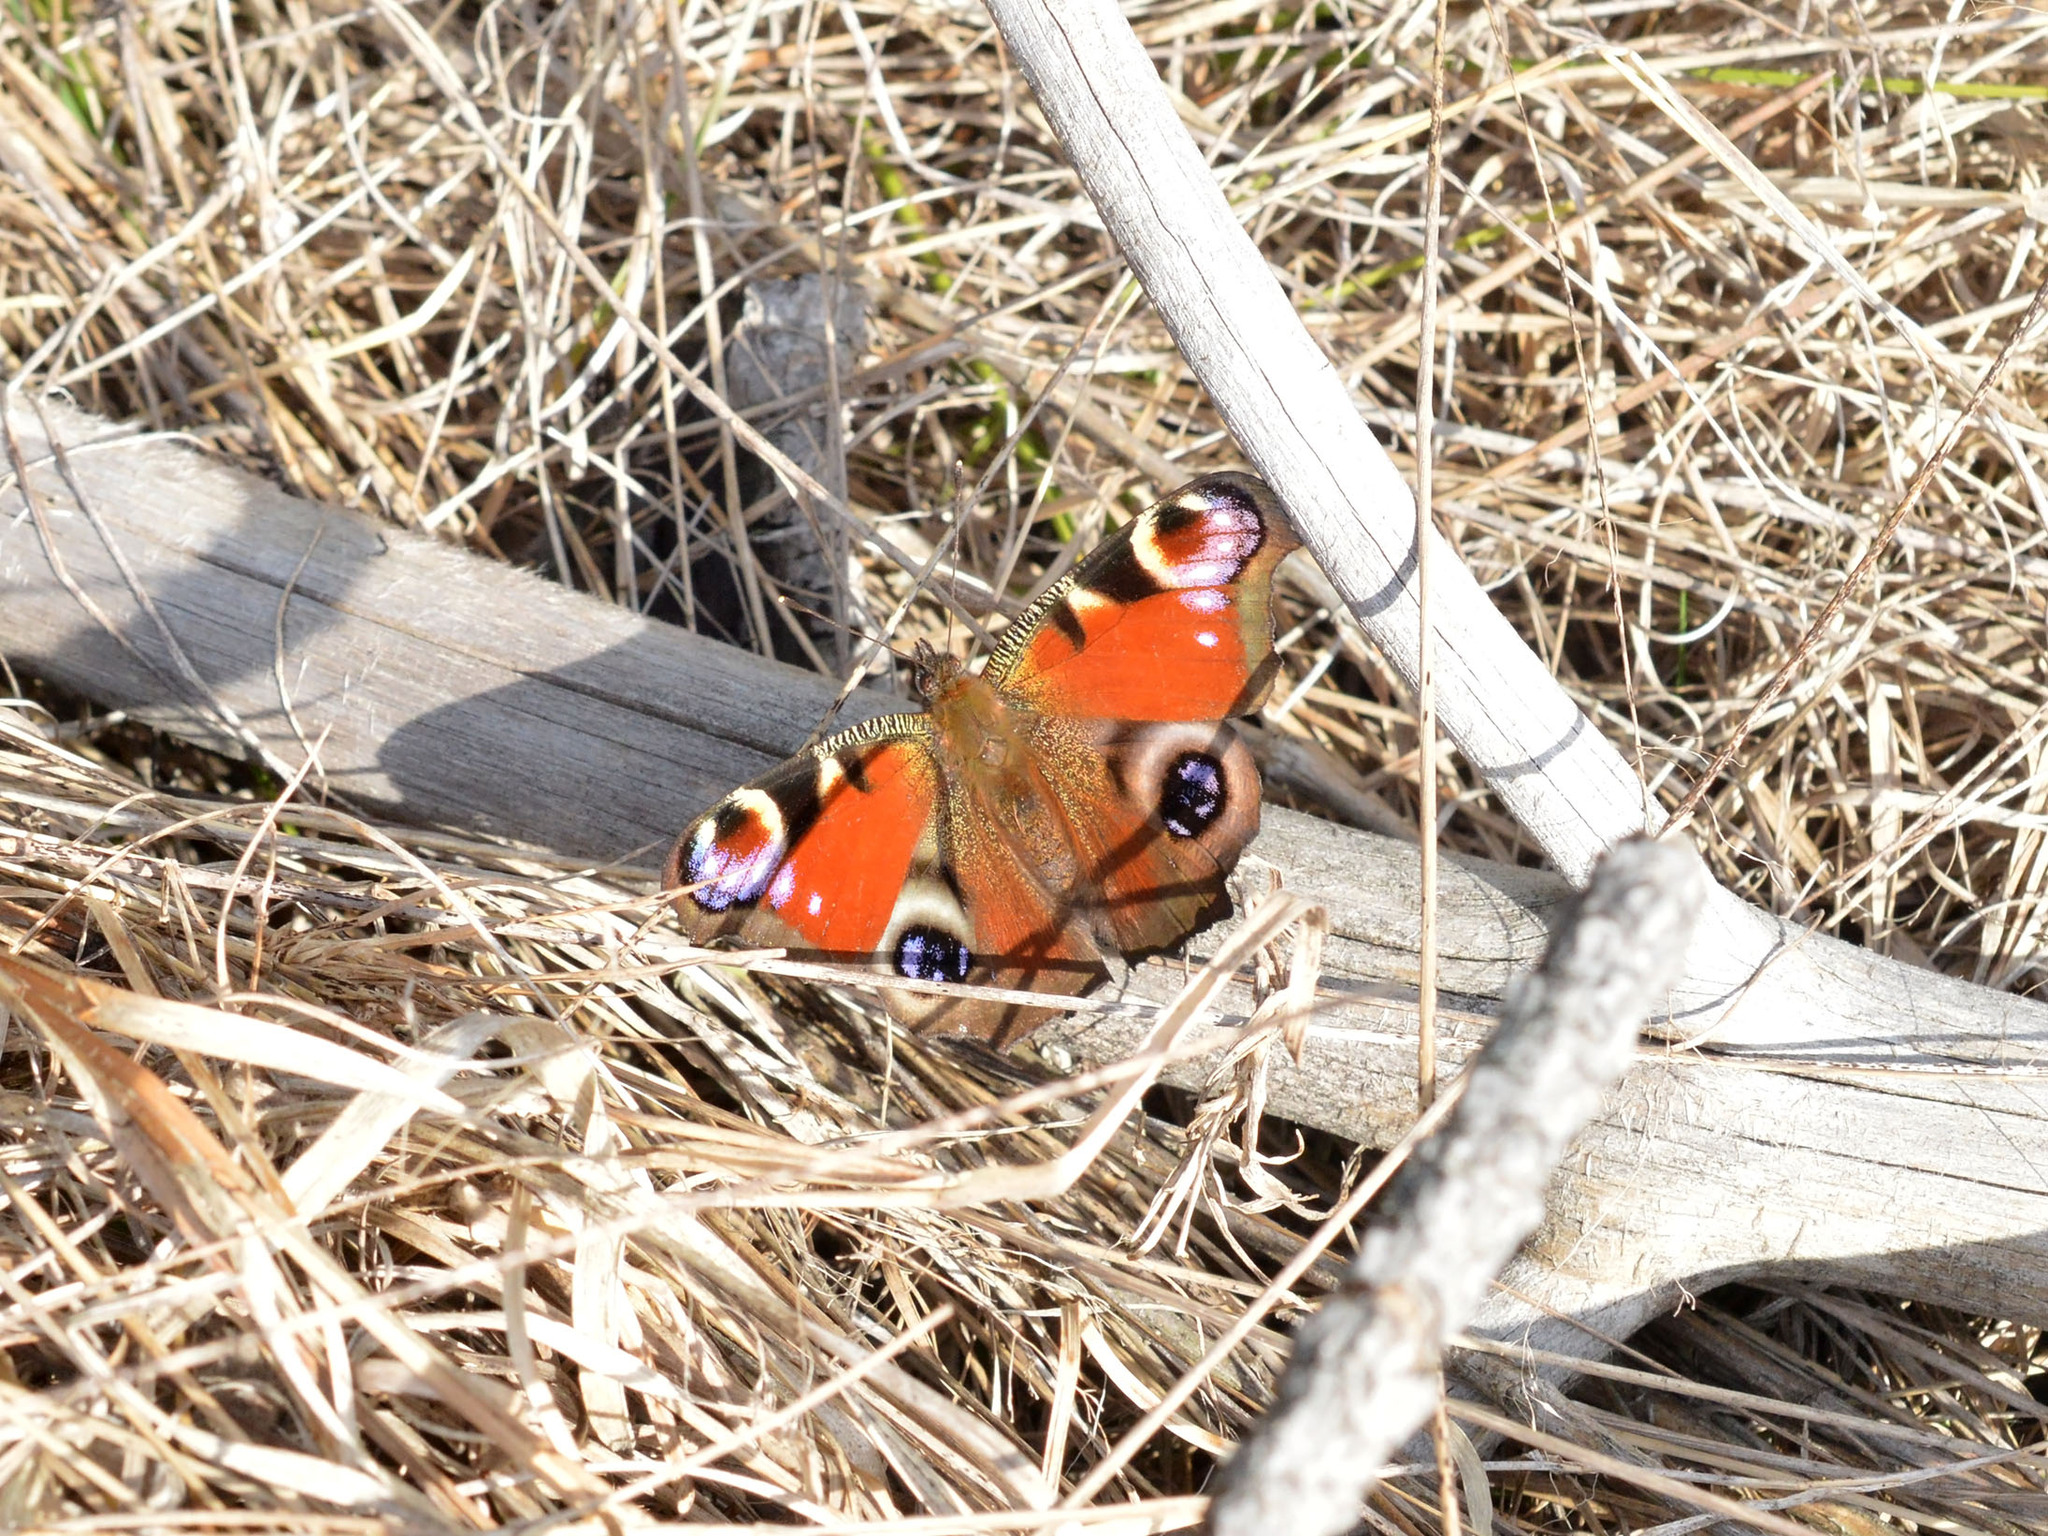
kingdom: Animalia
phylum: Arthropoda
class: Insecta
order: Lepidoptera
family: Nymphalidae
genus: Aglais
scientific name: Aglais io
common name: Peacock
